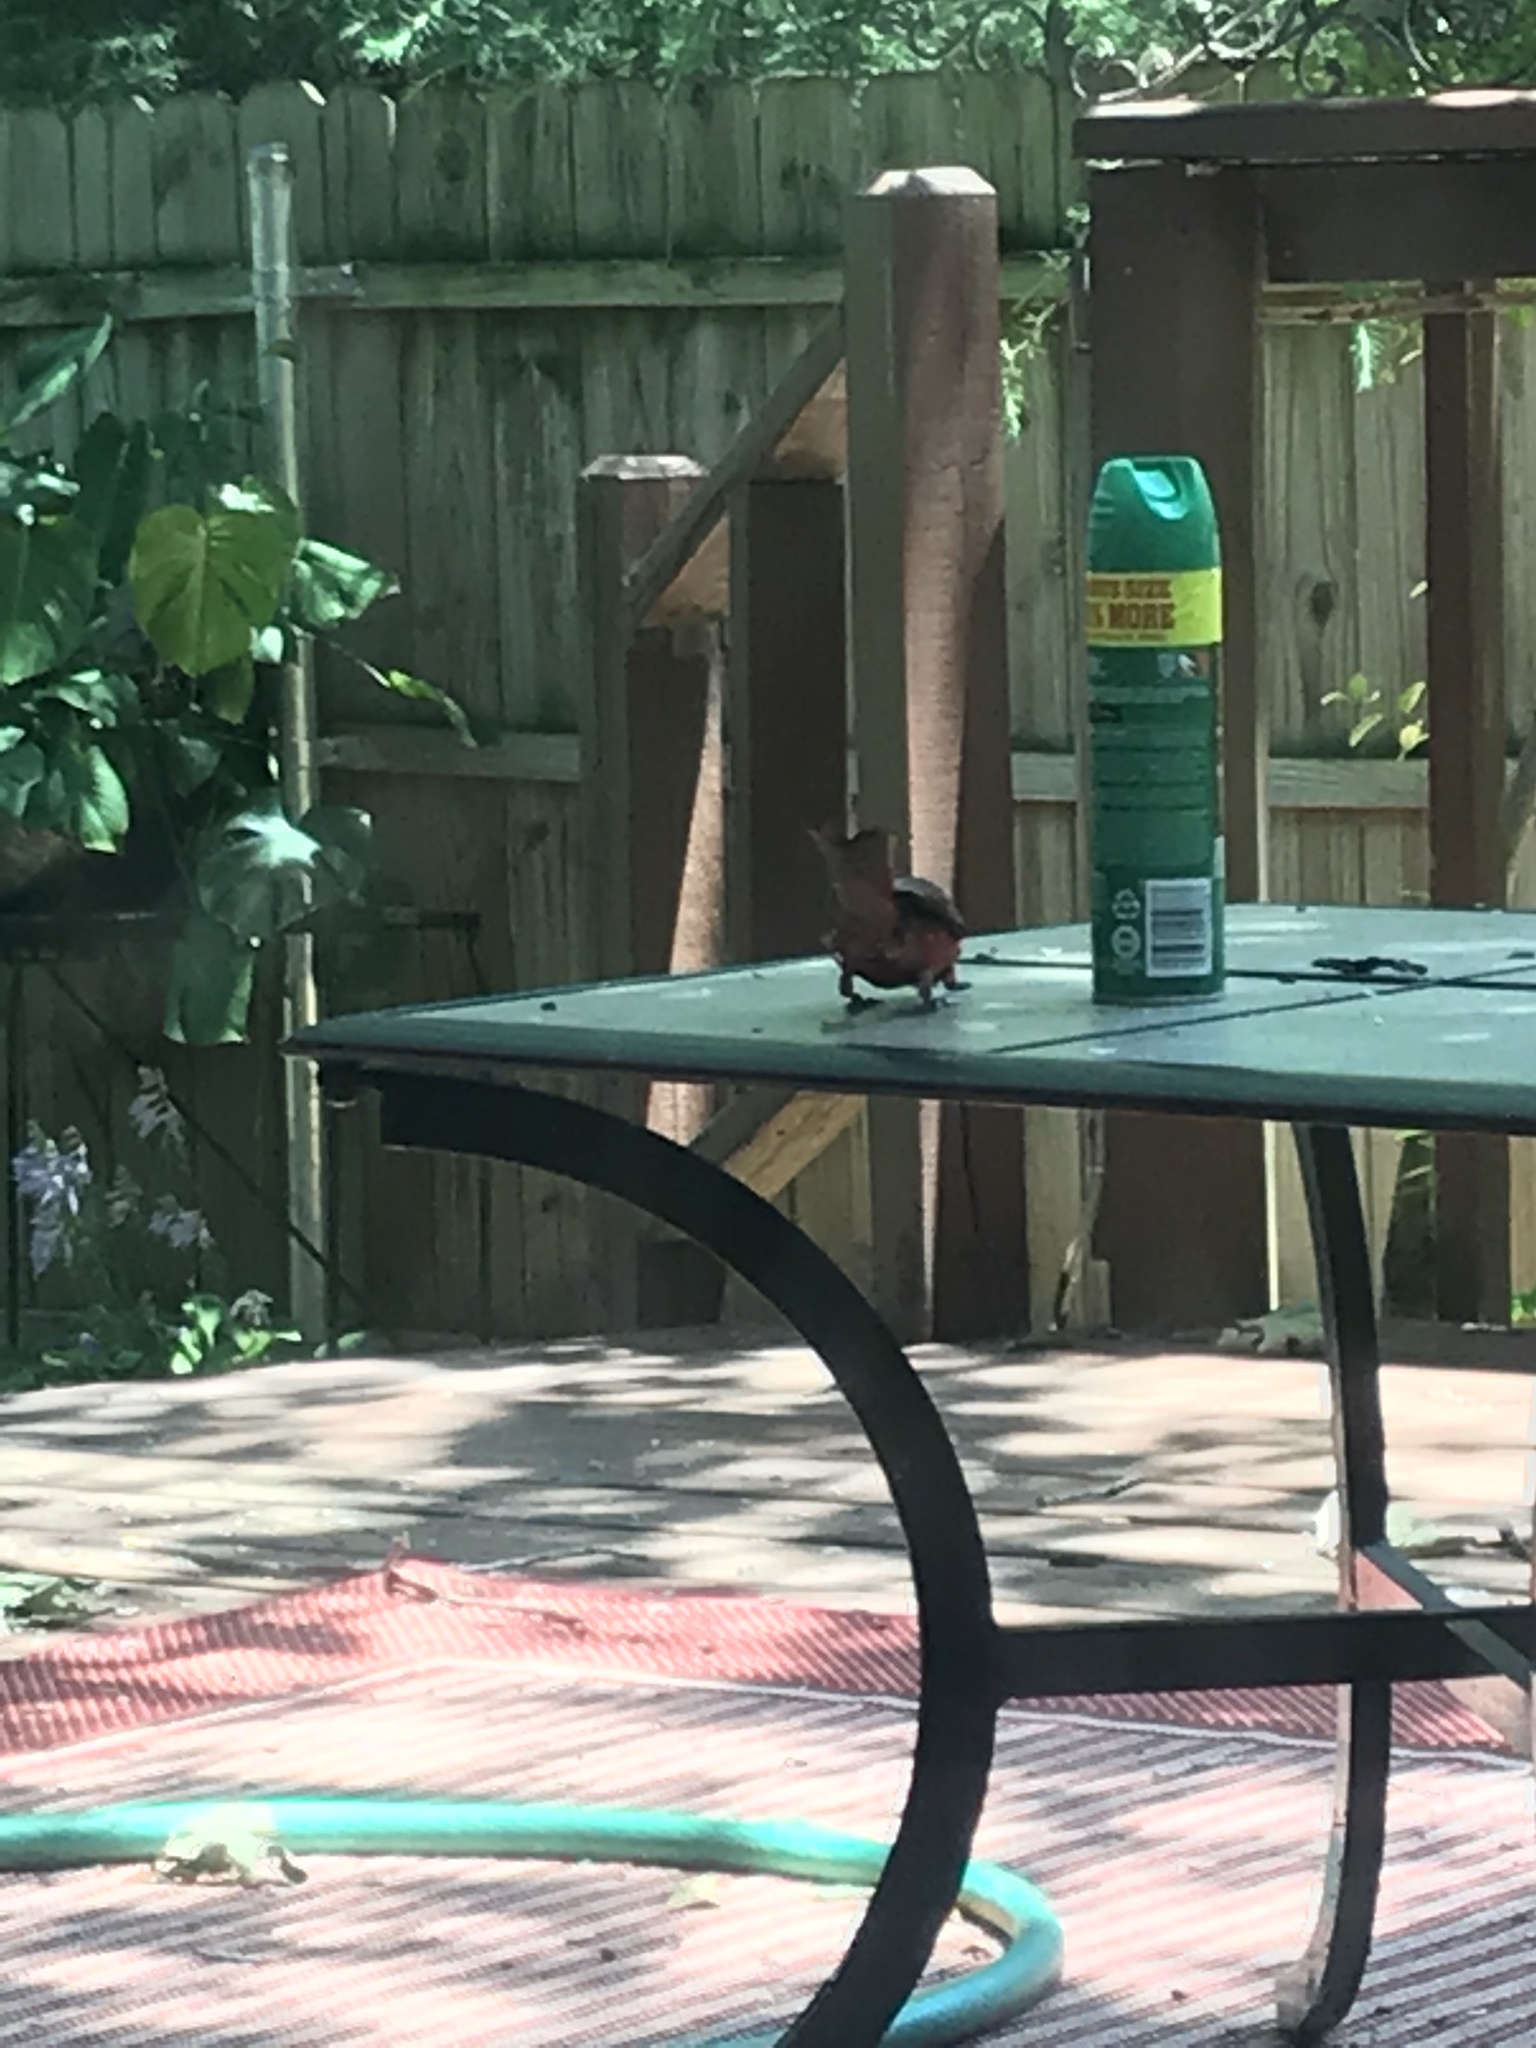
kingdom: Animalia
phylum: Chordata
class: Aves
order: Passeriformes
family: Cardinalidae
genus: Cardinalis
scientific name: Cardinalis cardinalis
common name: Northern cardinal
